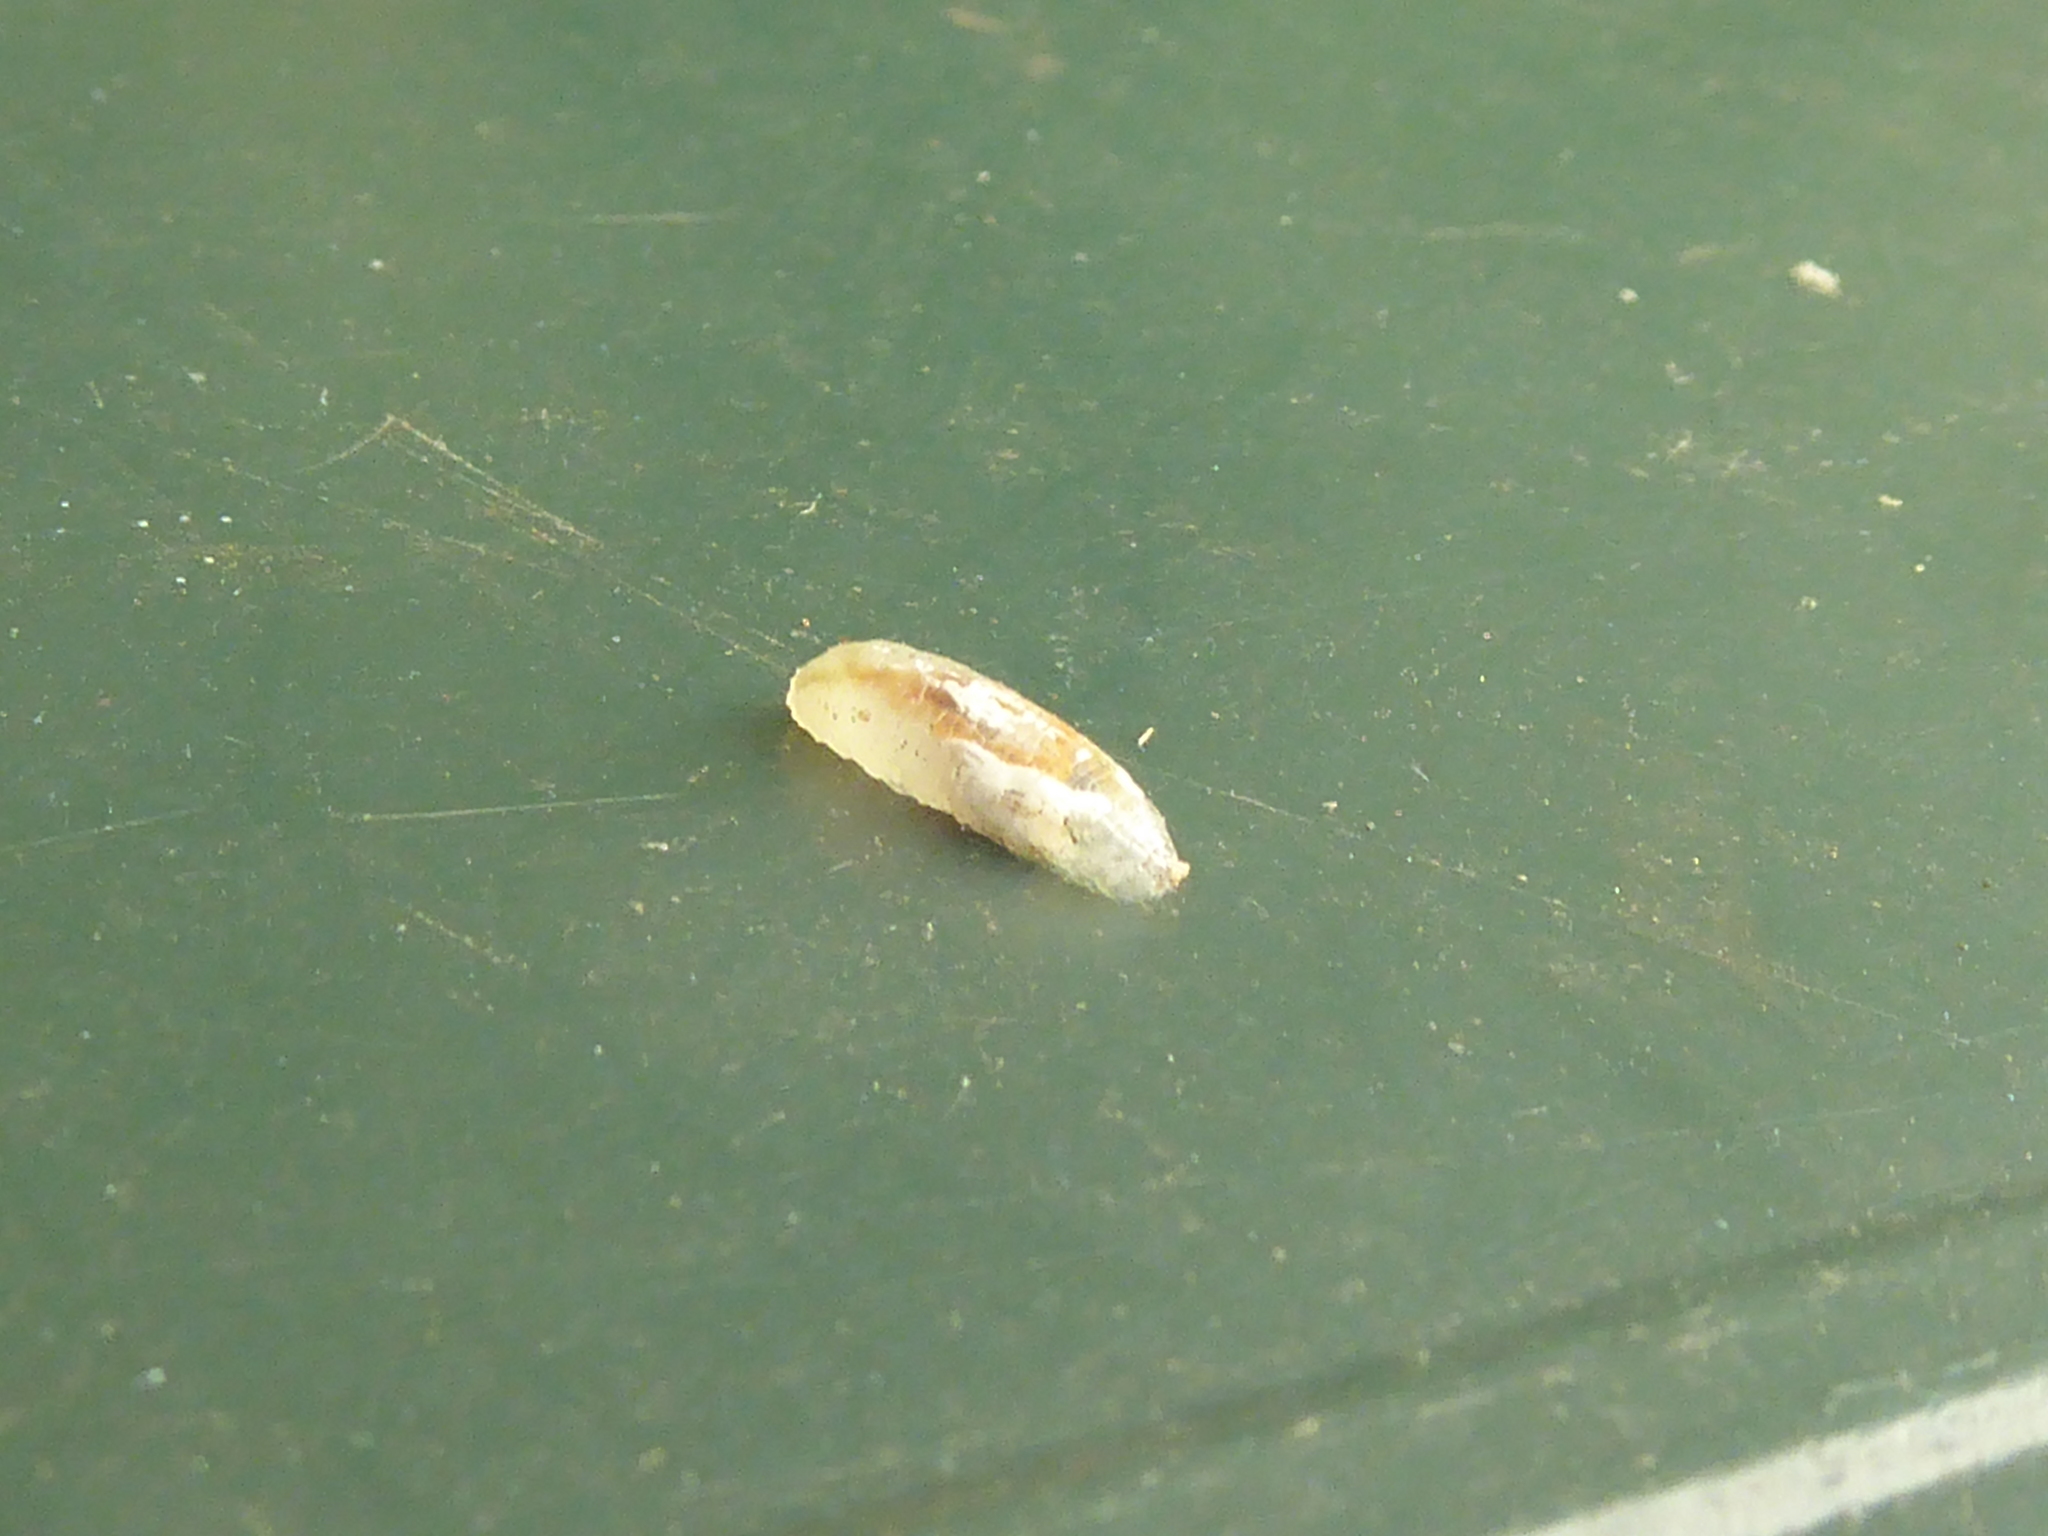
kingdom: Animalia
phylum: Arthropoda
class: Insecta
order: Diptera
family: Syrphidae
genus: Episyrphus
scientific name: Episyrphus balteatus
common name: Marmalade hoverfly
